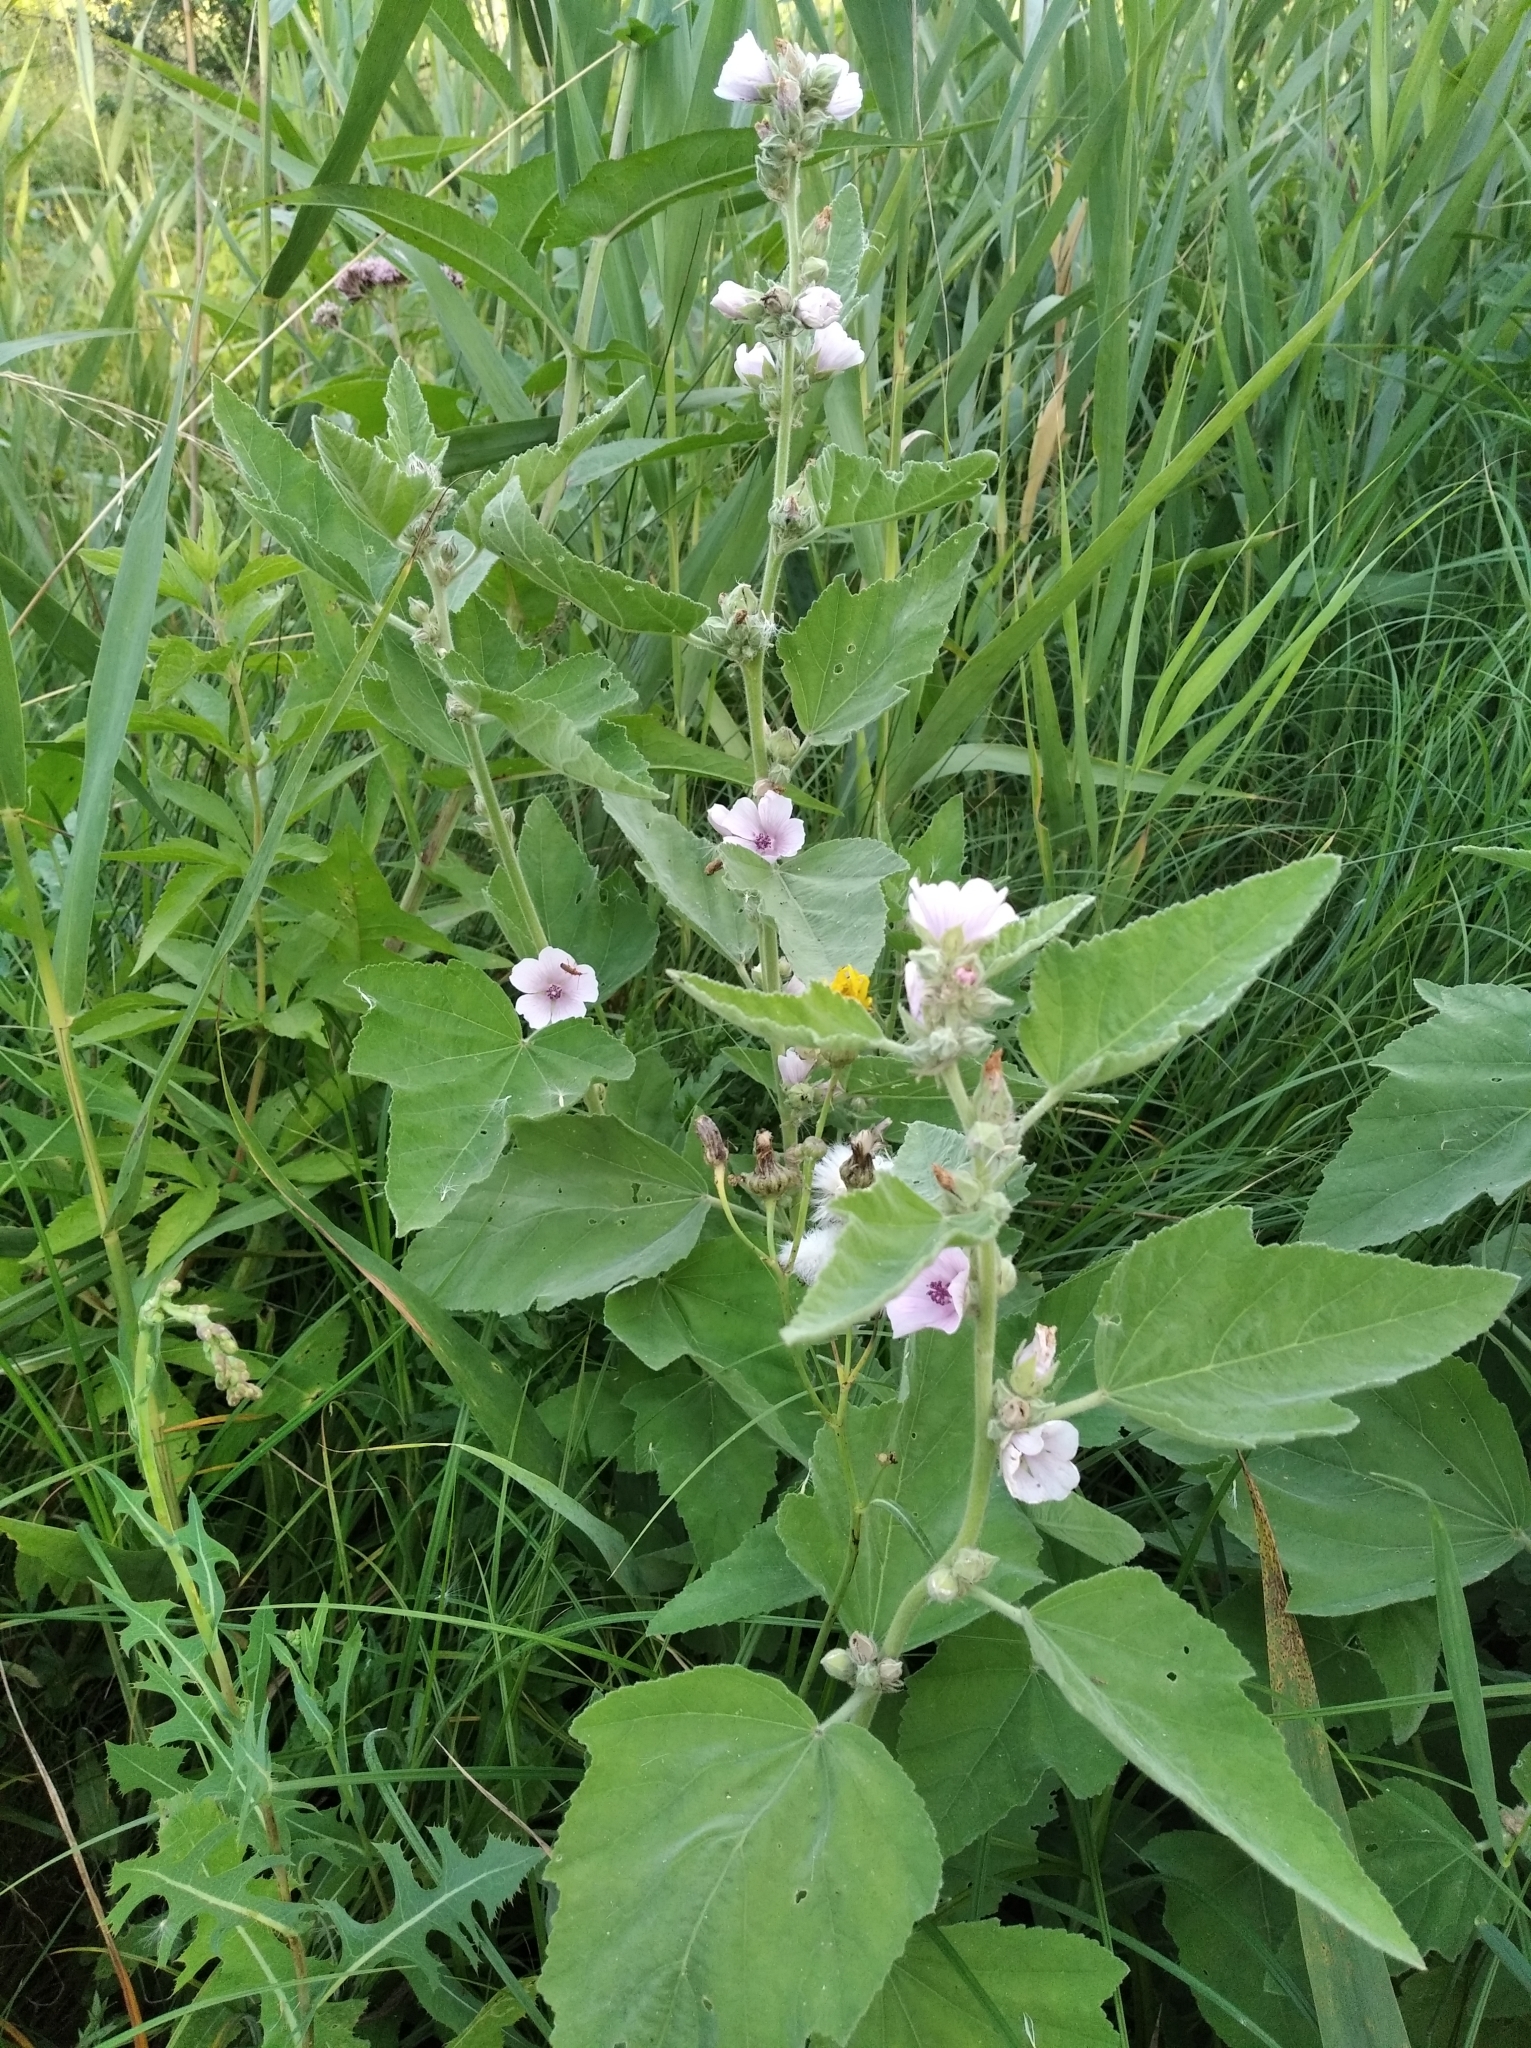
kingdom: Plantae
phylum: Tracheophyta
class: Magnoliopsida
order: Malvales
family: Malvaceae
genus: Althaea
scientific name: Althaea officinalis
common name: Marsh-mallow
